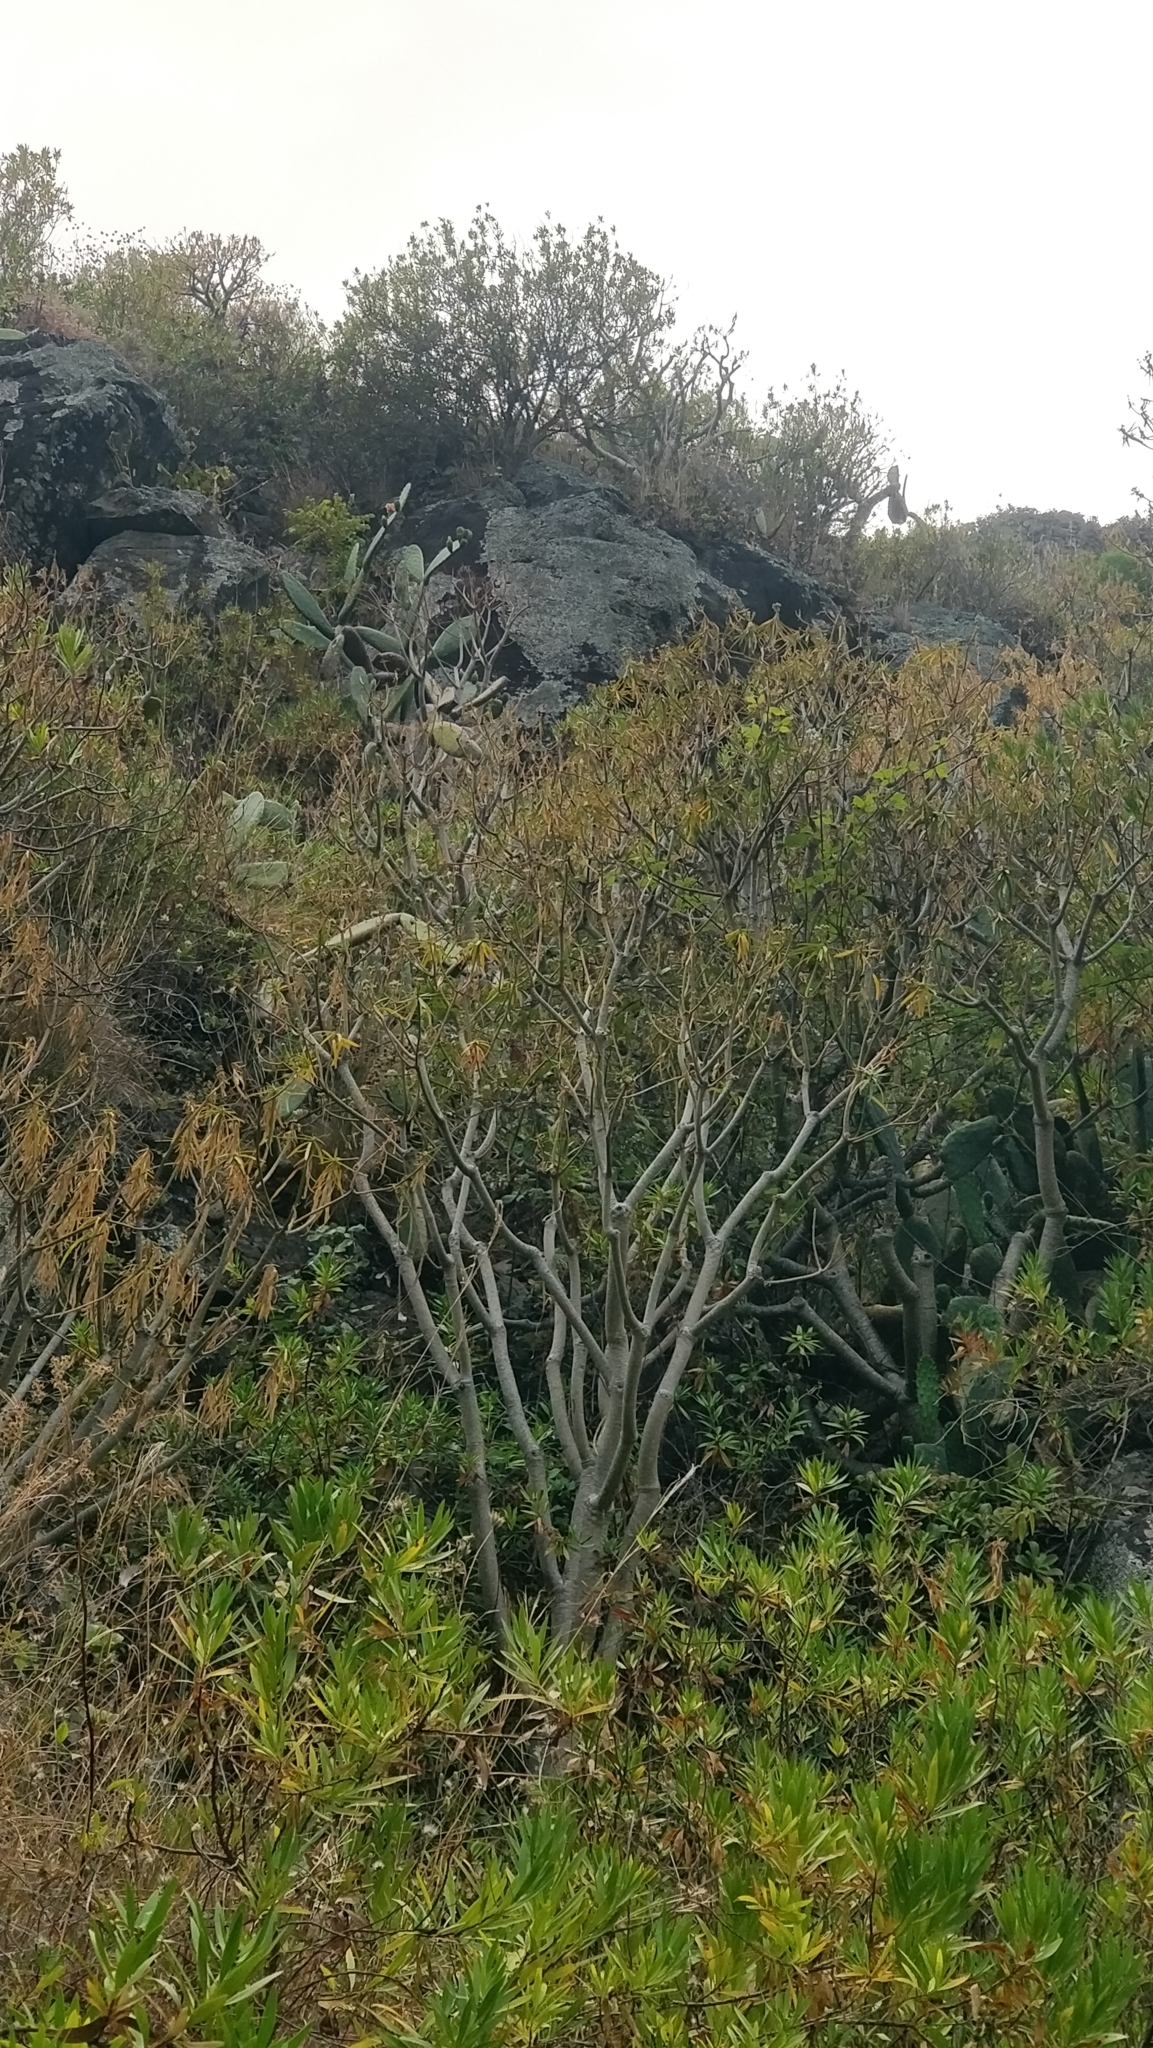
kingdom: Plantae
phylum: Tracheophyta
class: Magnoliopsida
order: Malpighiales
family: Euphorbiaceae
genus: Euphorbia
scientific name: Euphorbia piscatoria
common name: Fish-stunning spurge
